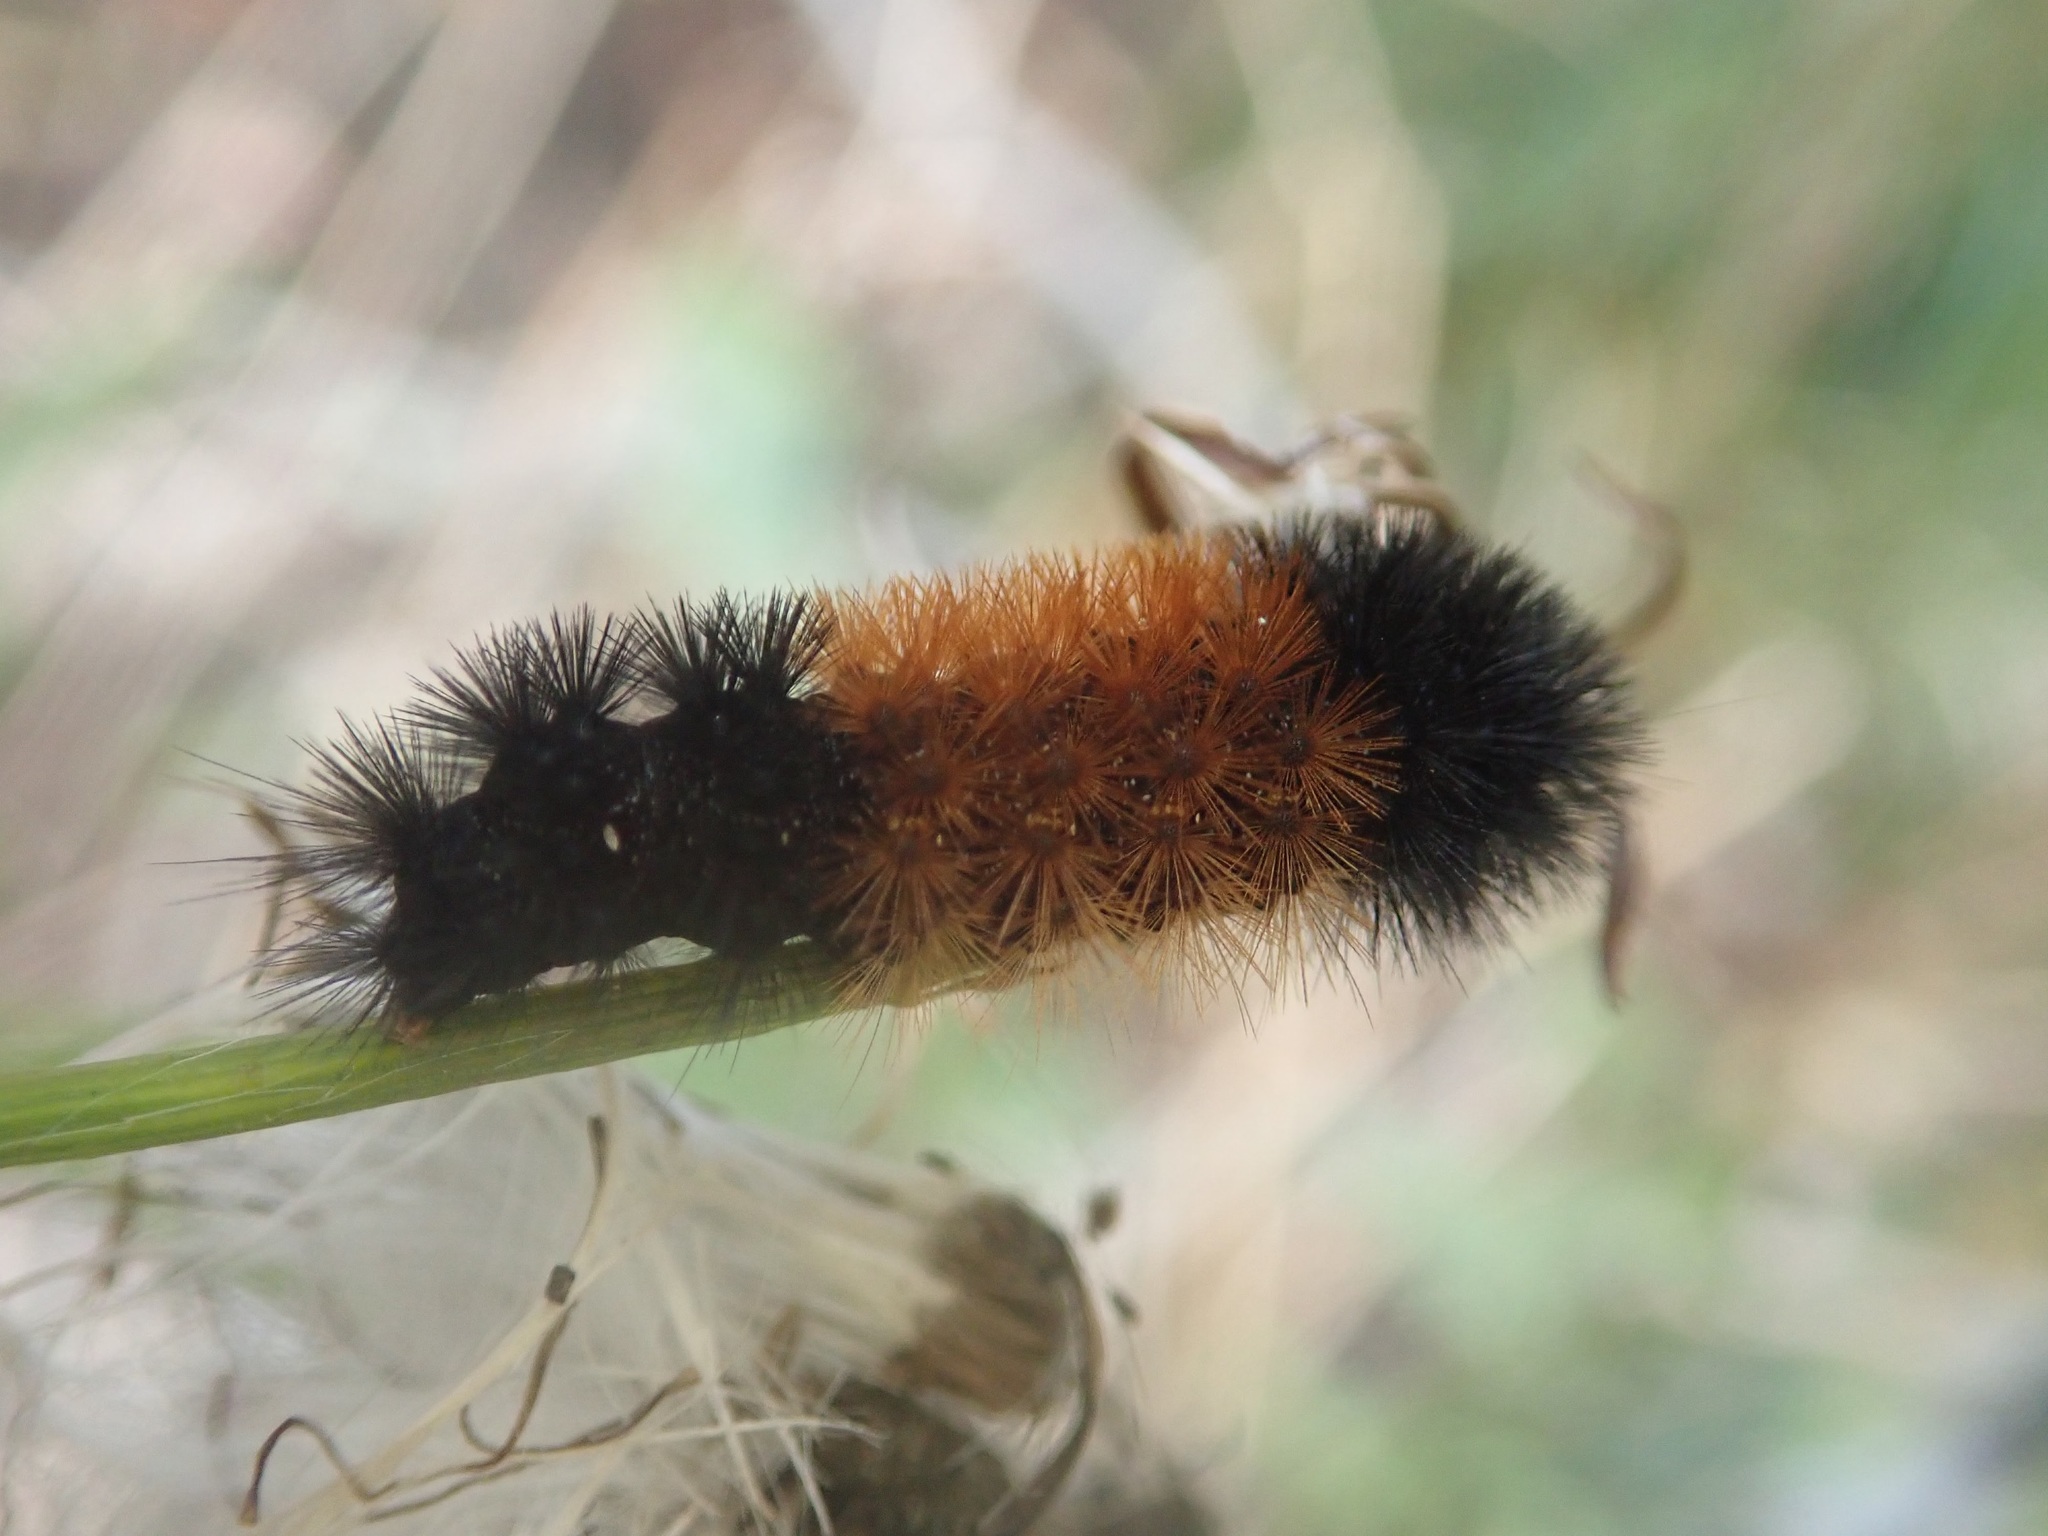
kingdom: Animalia
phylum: Arthropoda
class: Insecta
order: Lepidoptera
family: Erebidae
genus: Pyrrharctia
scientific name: Pyrrharctia isabella
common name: Isabella tiger moth
